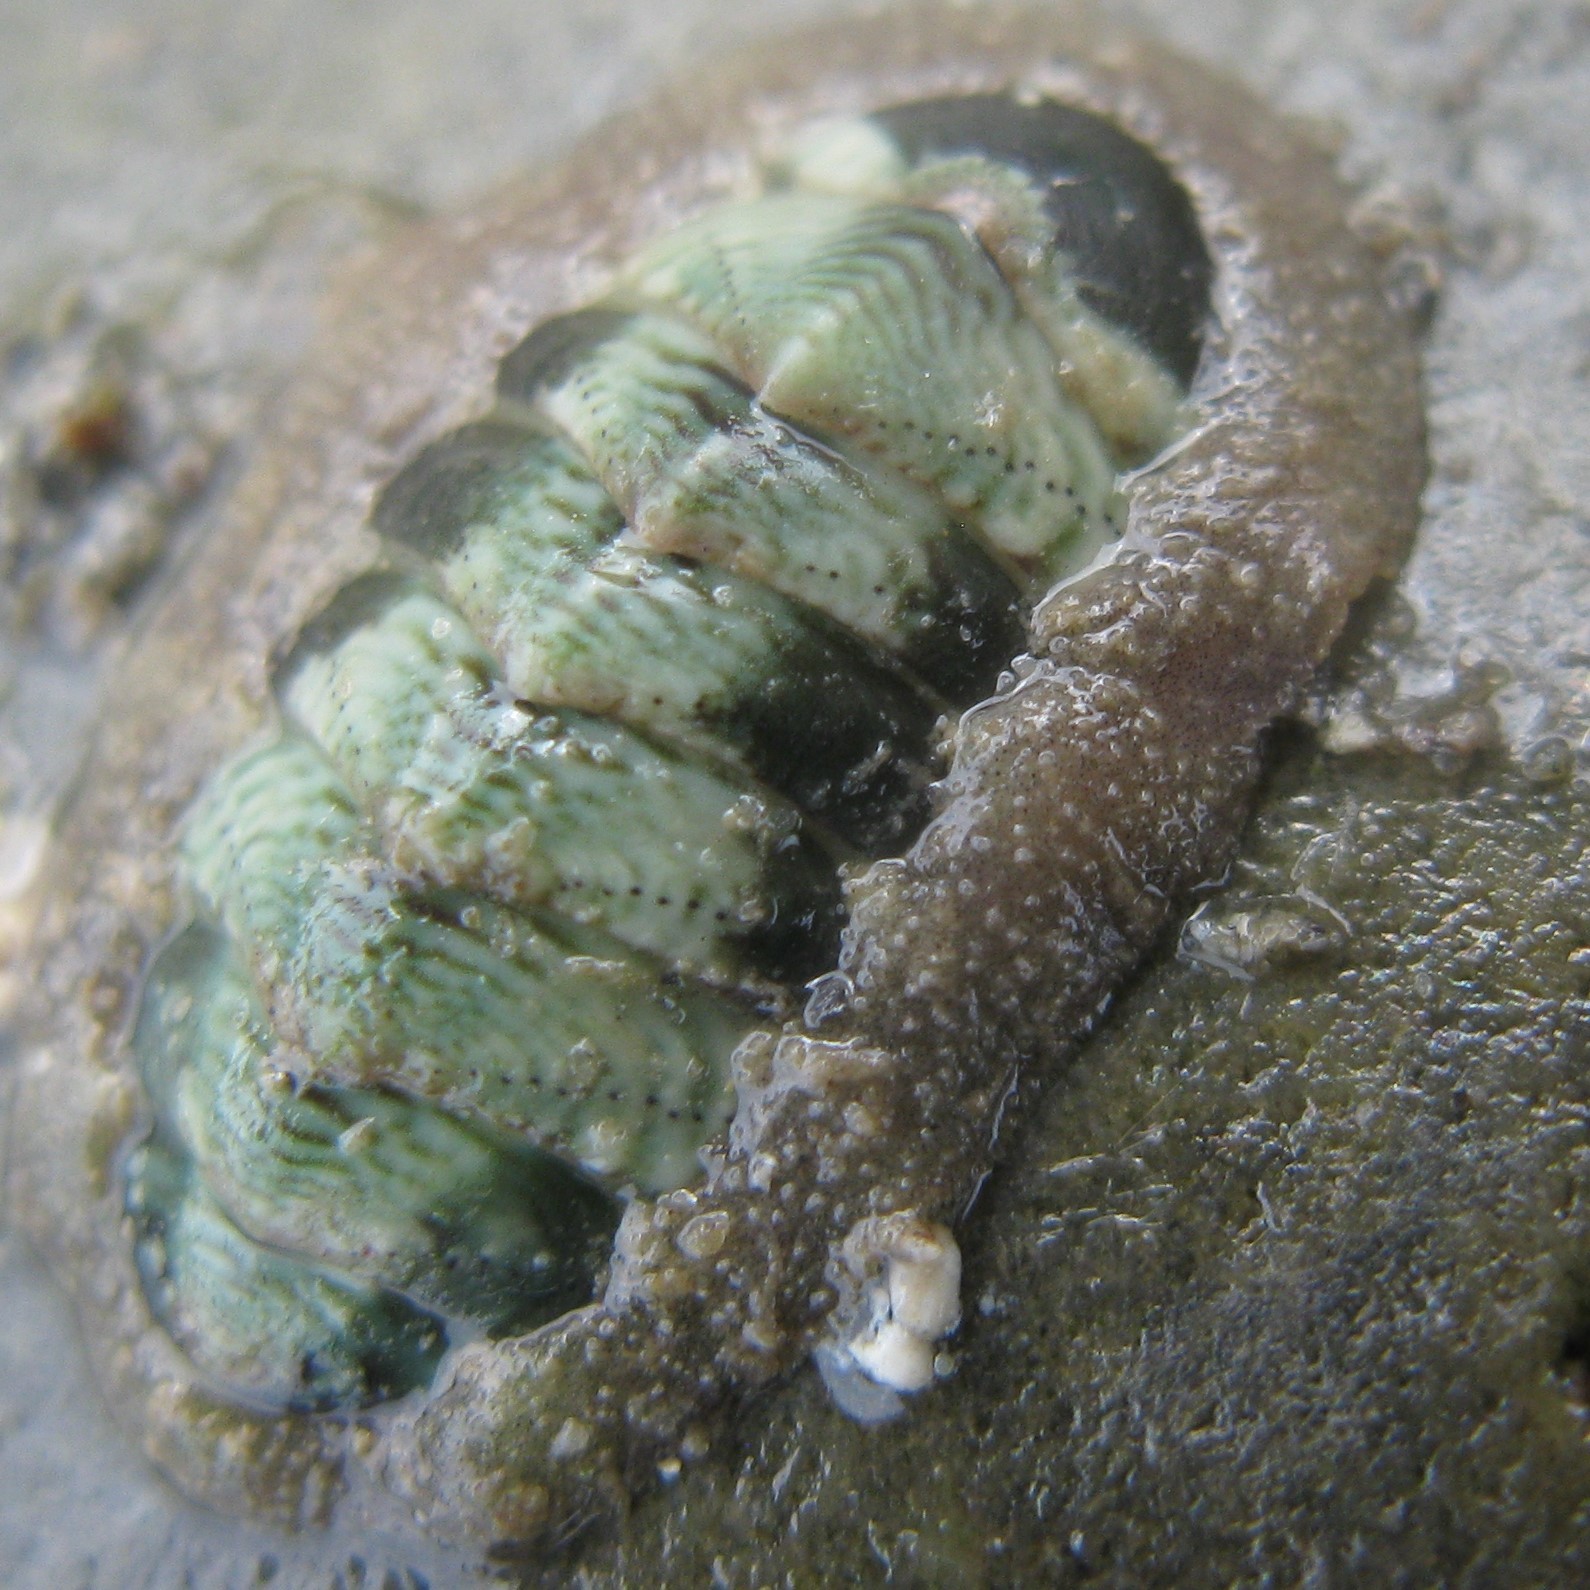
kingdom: Animalia
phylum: Mollusca
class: Polyplacophora
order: Chitonida
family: Chitonidae
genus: Onithochiton
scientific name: Onithochiton neglectus
